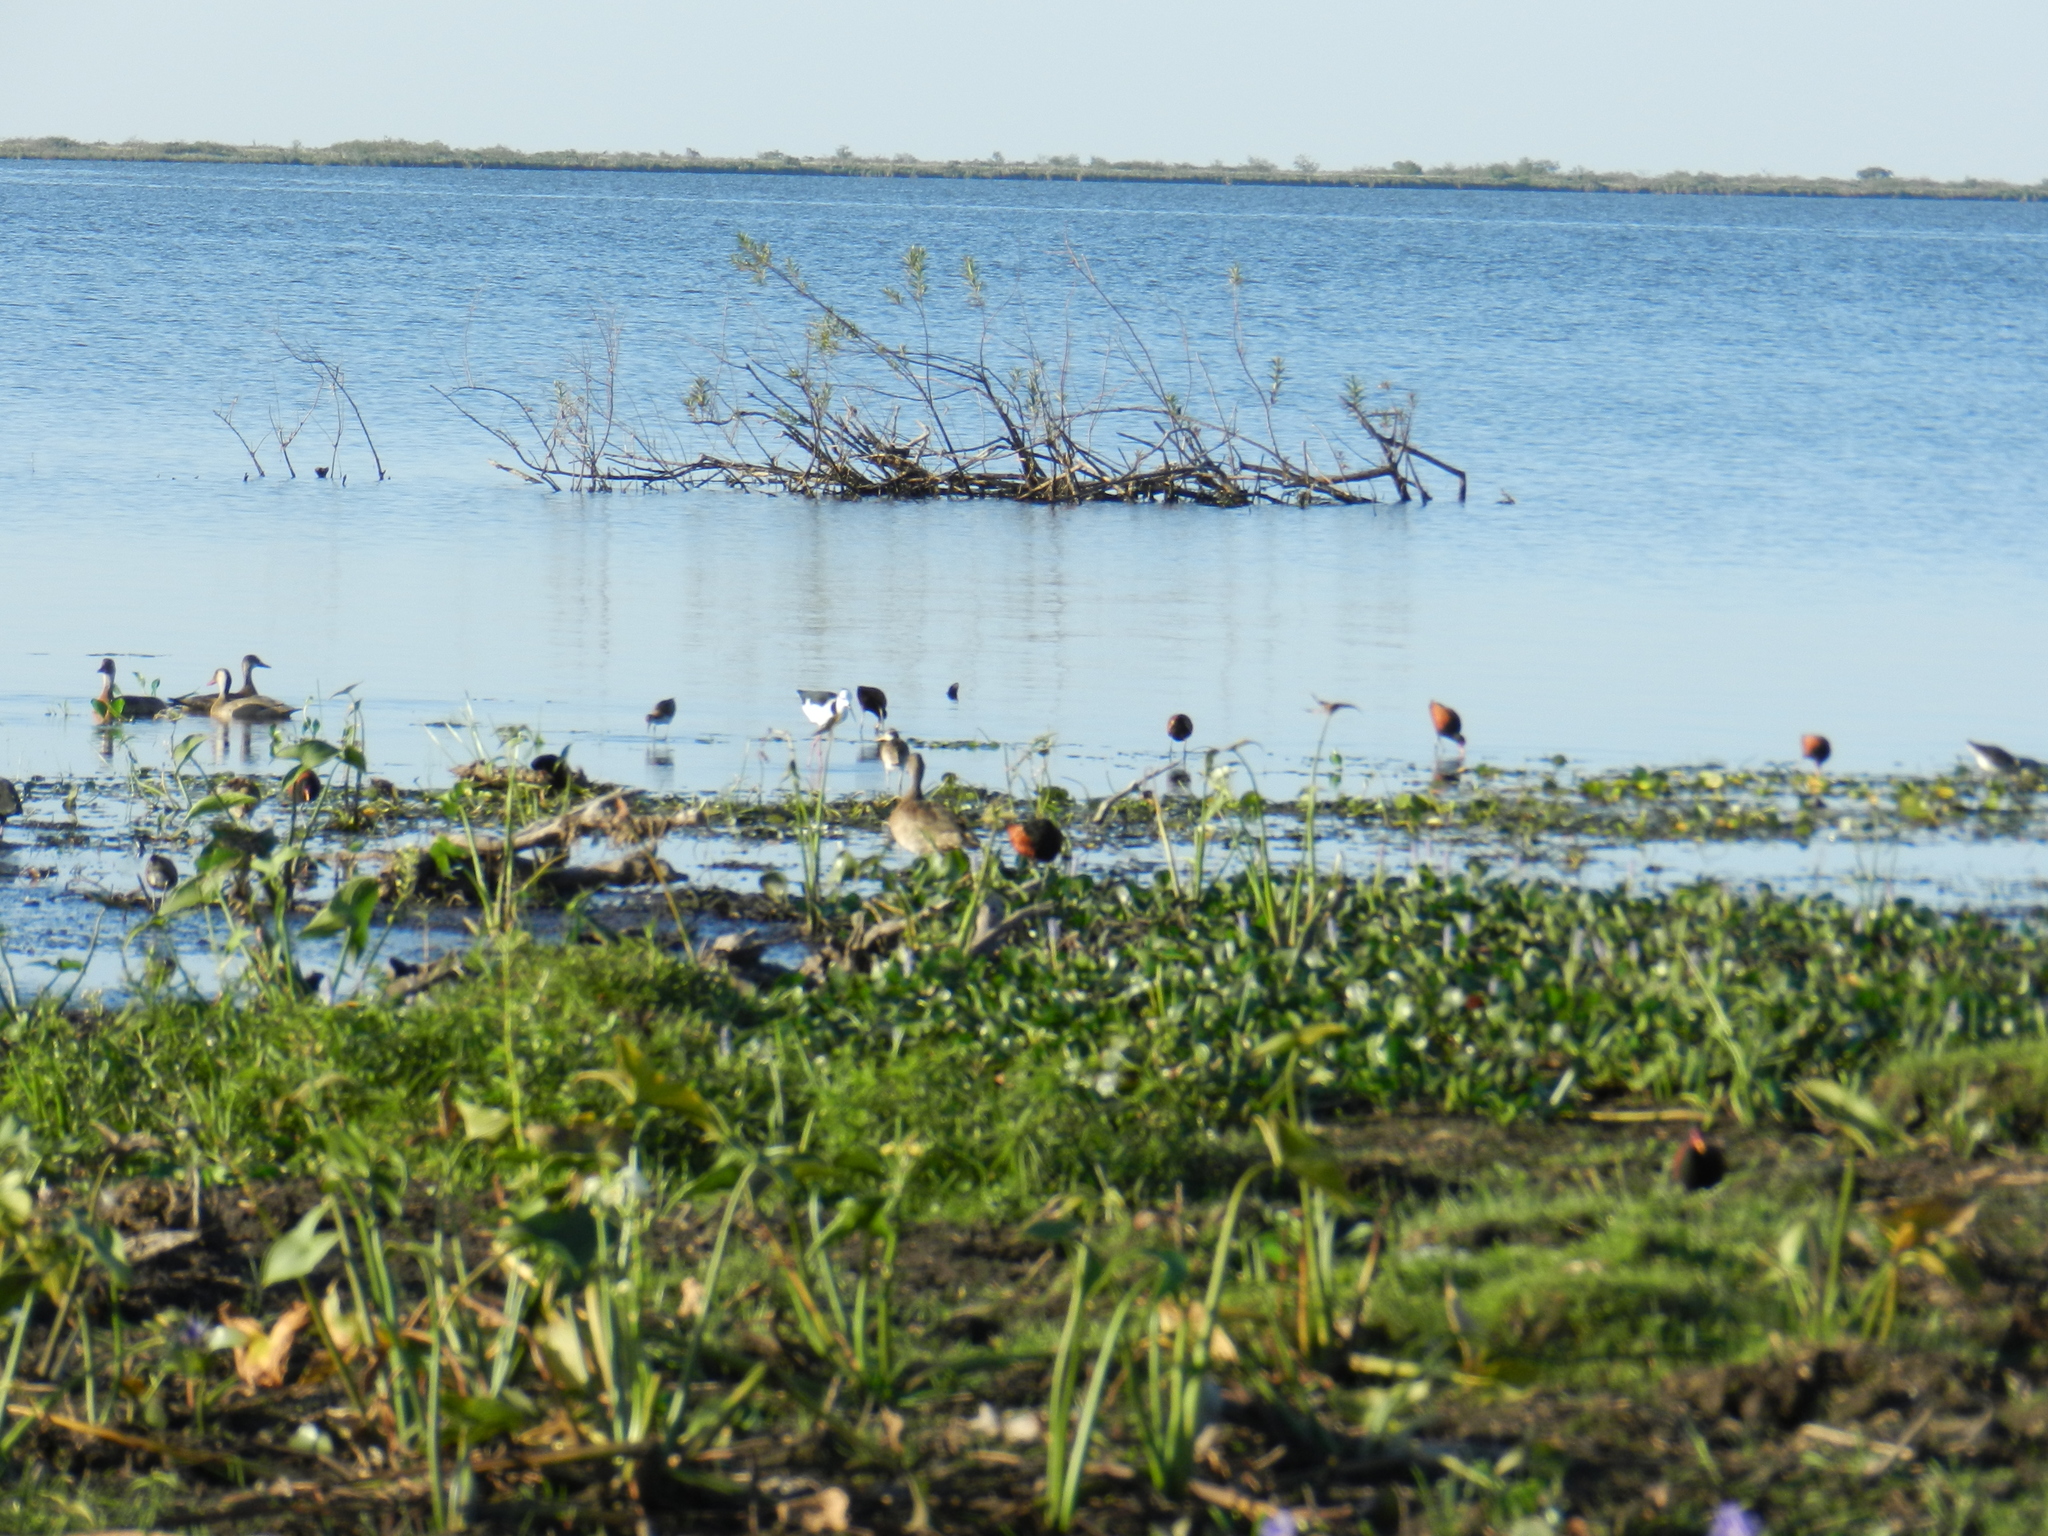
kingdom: Animalia
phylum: Chordata
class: Aves
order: Charadriiformes
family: Jacanidae
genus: Jacana
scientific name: Jacana jacana
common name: Wattled jacana
